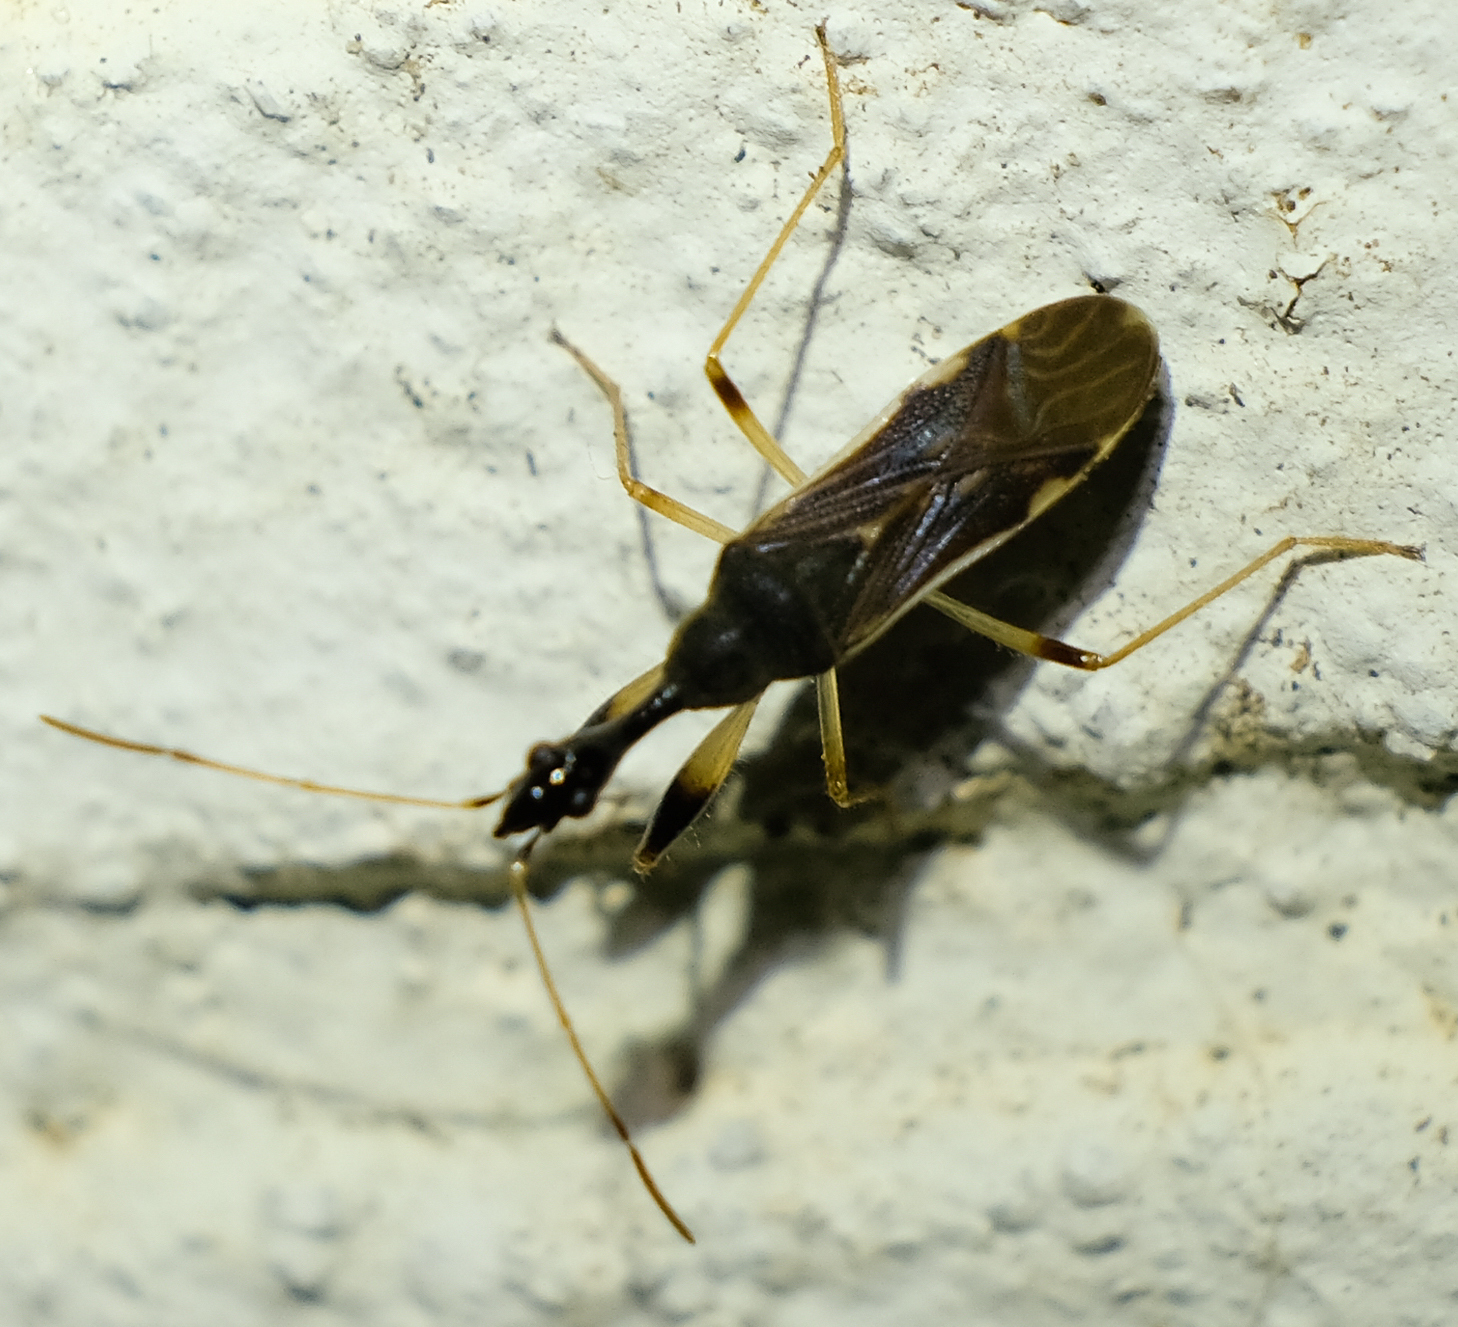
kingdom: Animalia
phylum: Arthropoda
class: Insecta
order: Hemiptera
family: Rhyparochromidae
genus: Myodocha
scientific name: Myodocha serripes
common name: Long-necked seed bug
